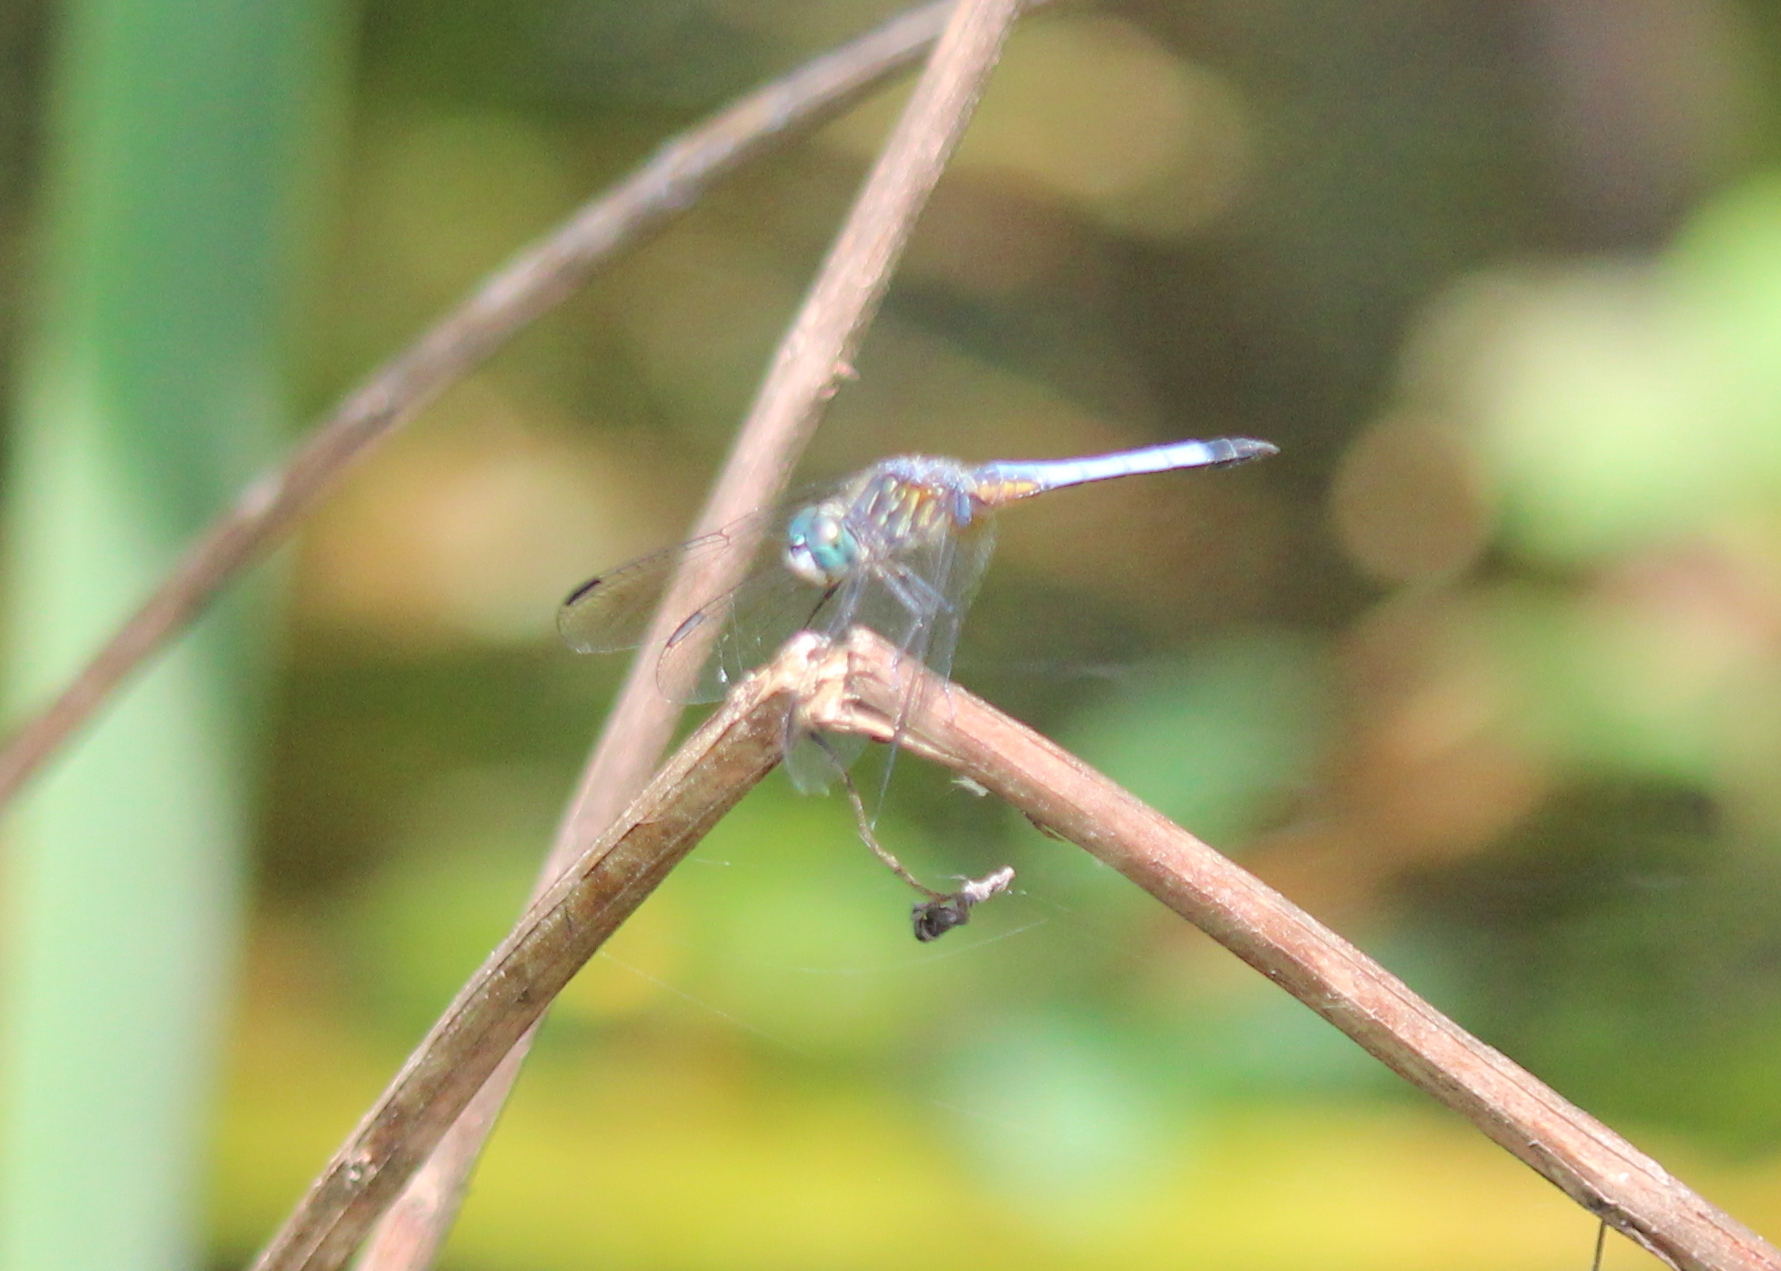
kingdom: Animalia
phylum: Arthropoda
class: Insecta
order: Odonata
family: Libellulidae
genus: Pachydiplax
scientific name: Pachydiplax longipennis
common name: Blue dasher
